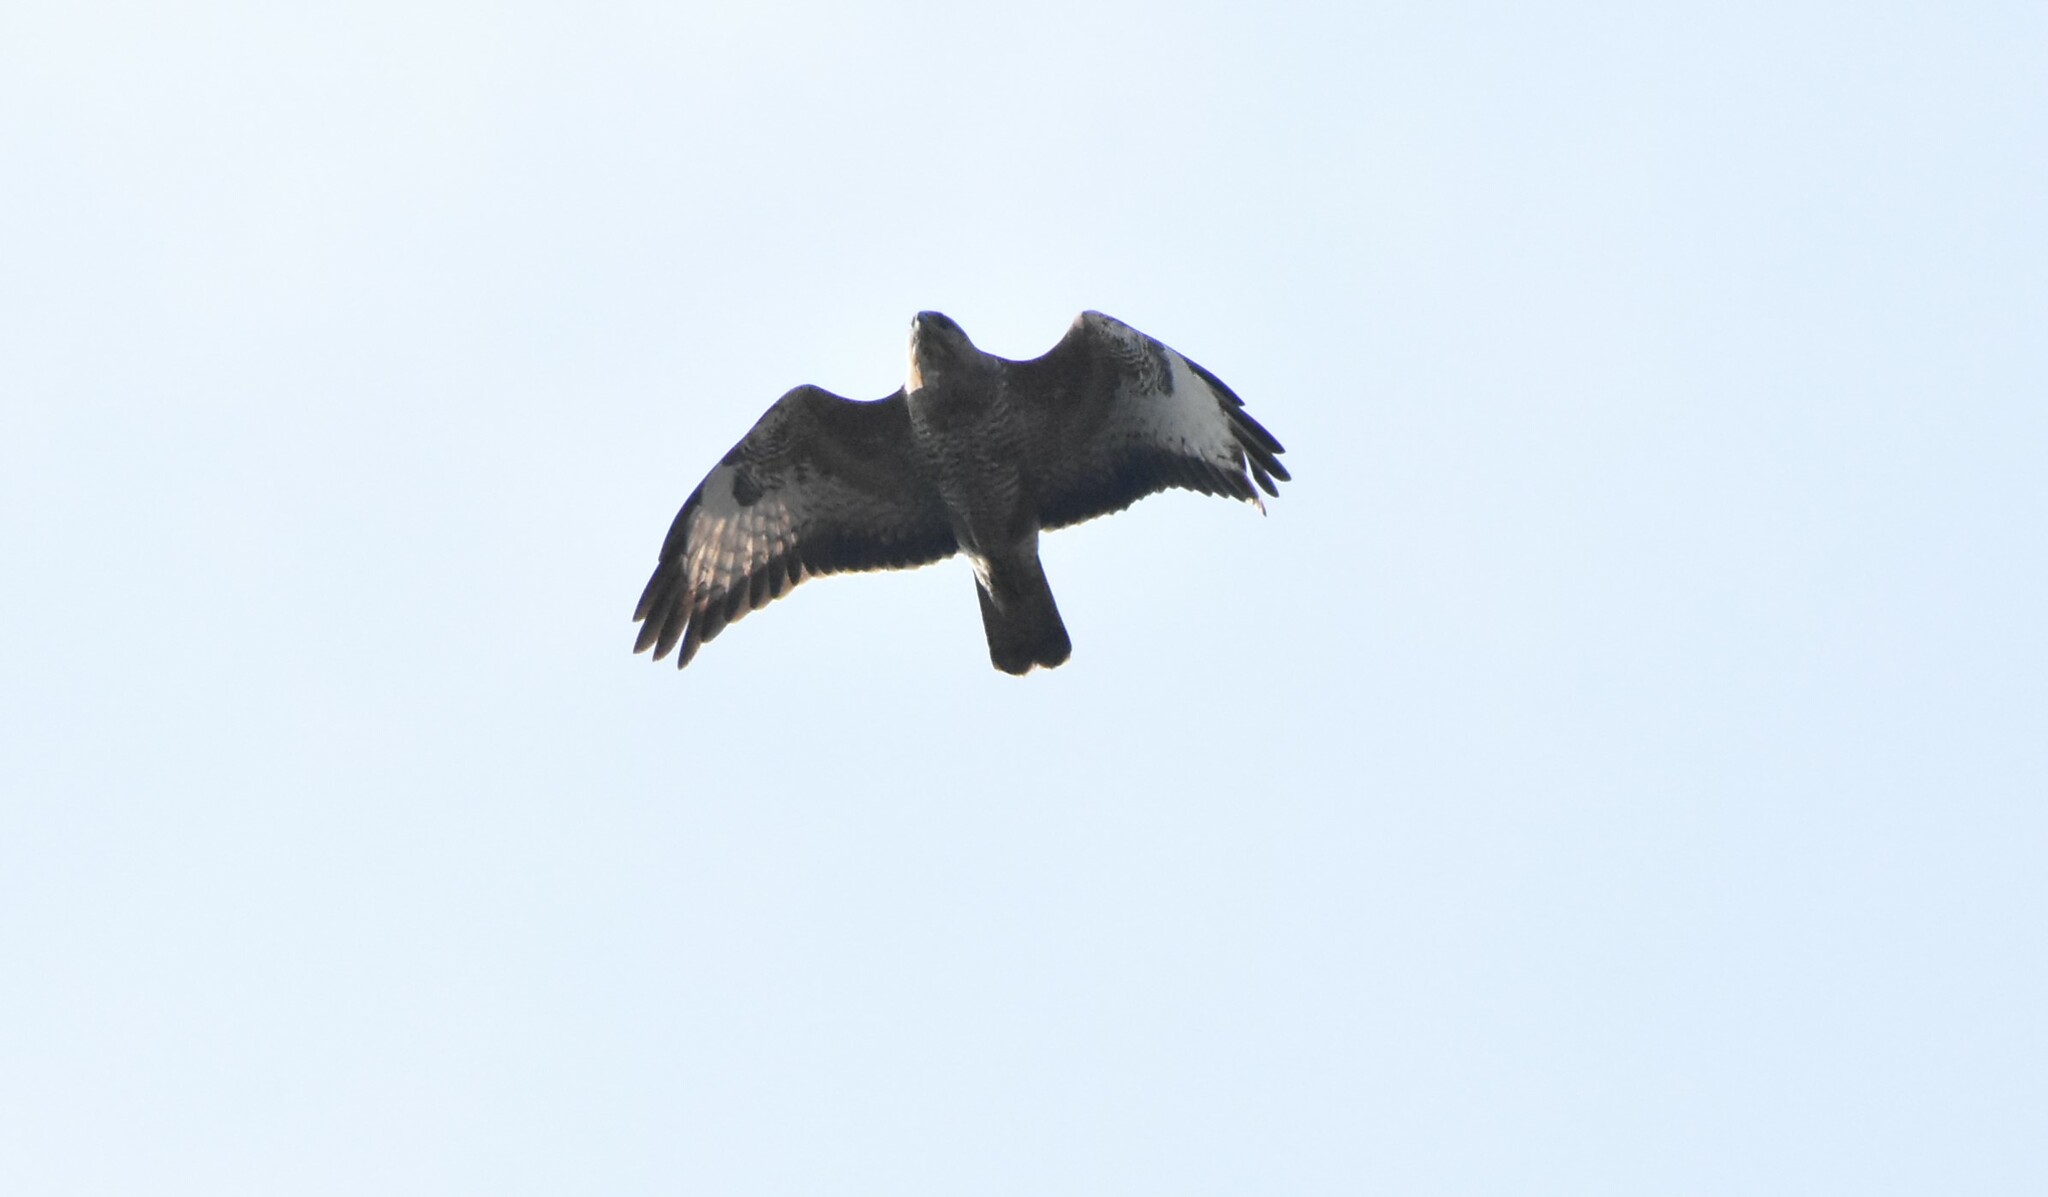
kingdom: Animalia
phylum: Chordata
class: Aves
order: Accipitriformes
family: Accipitridae
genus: Buteo
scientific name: Buteo buteo
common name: Common buzzard
